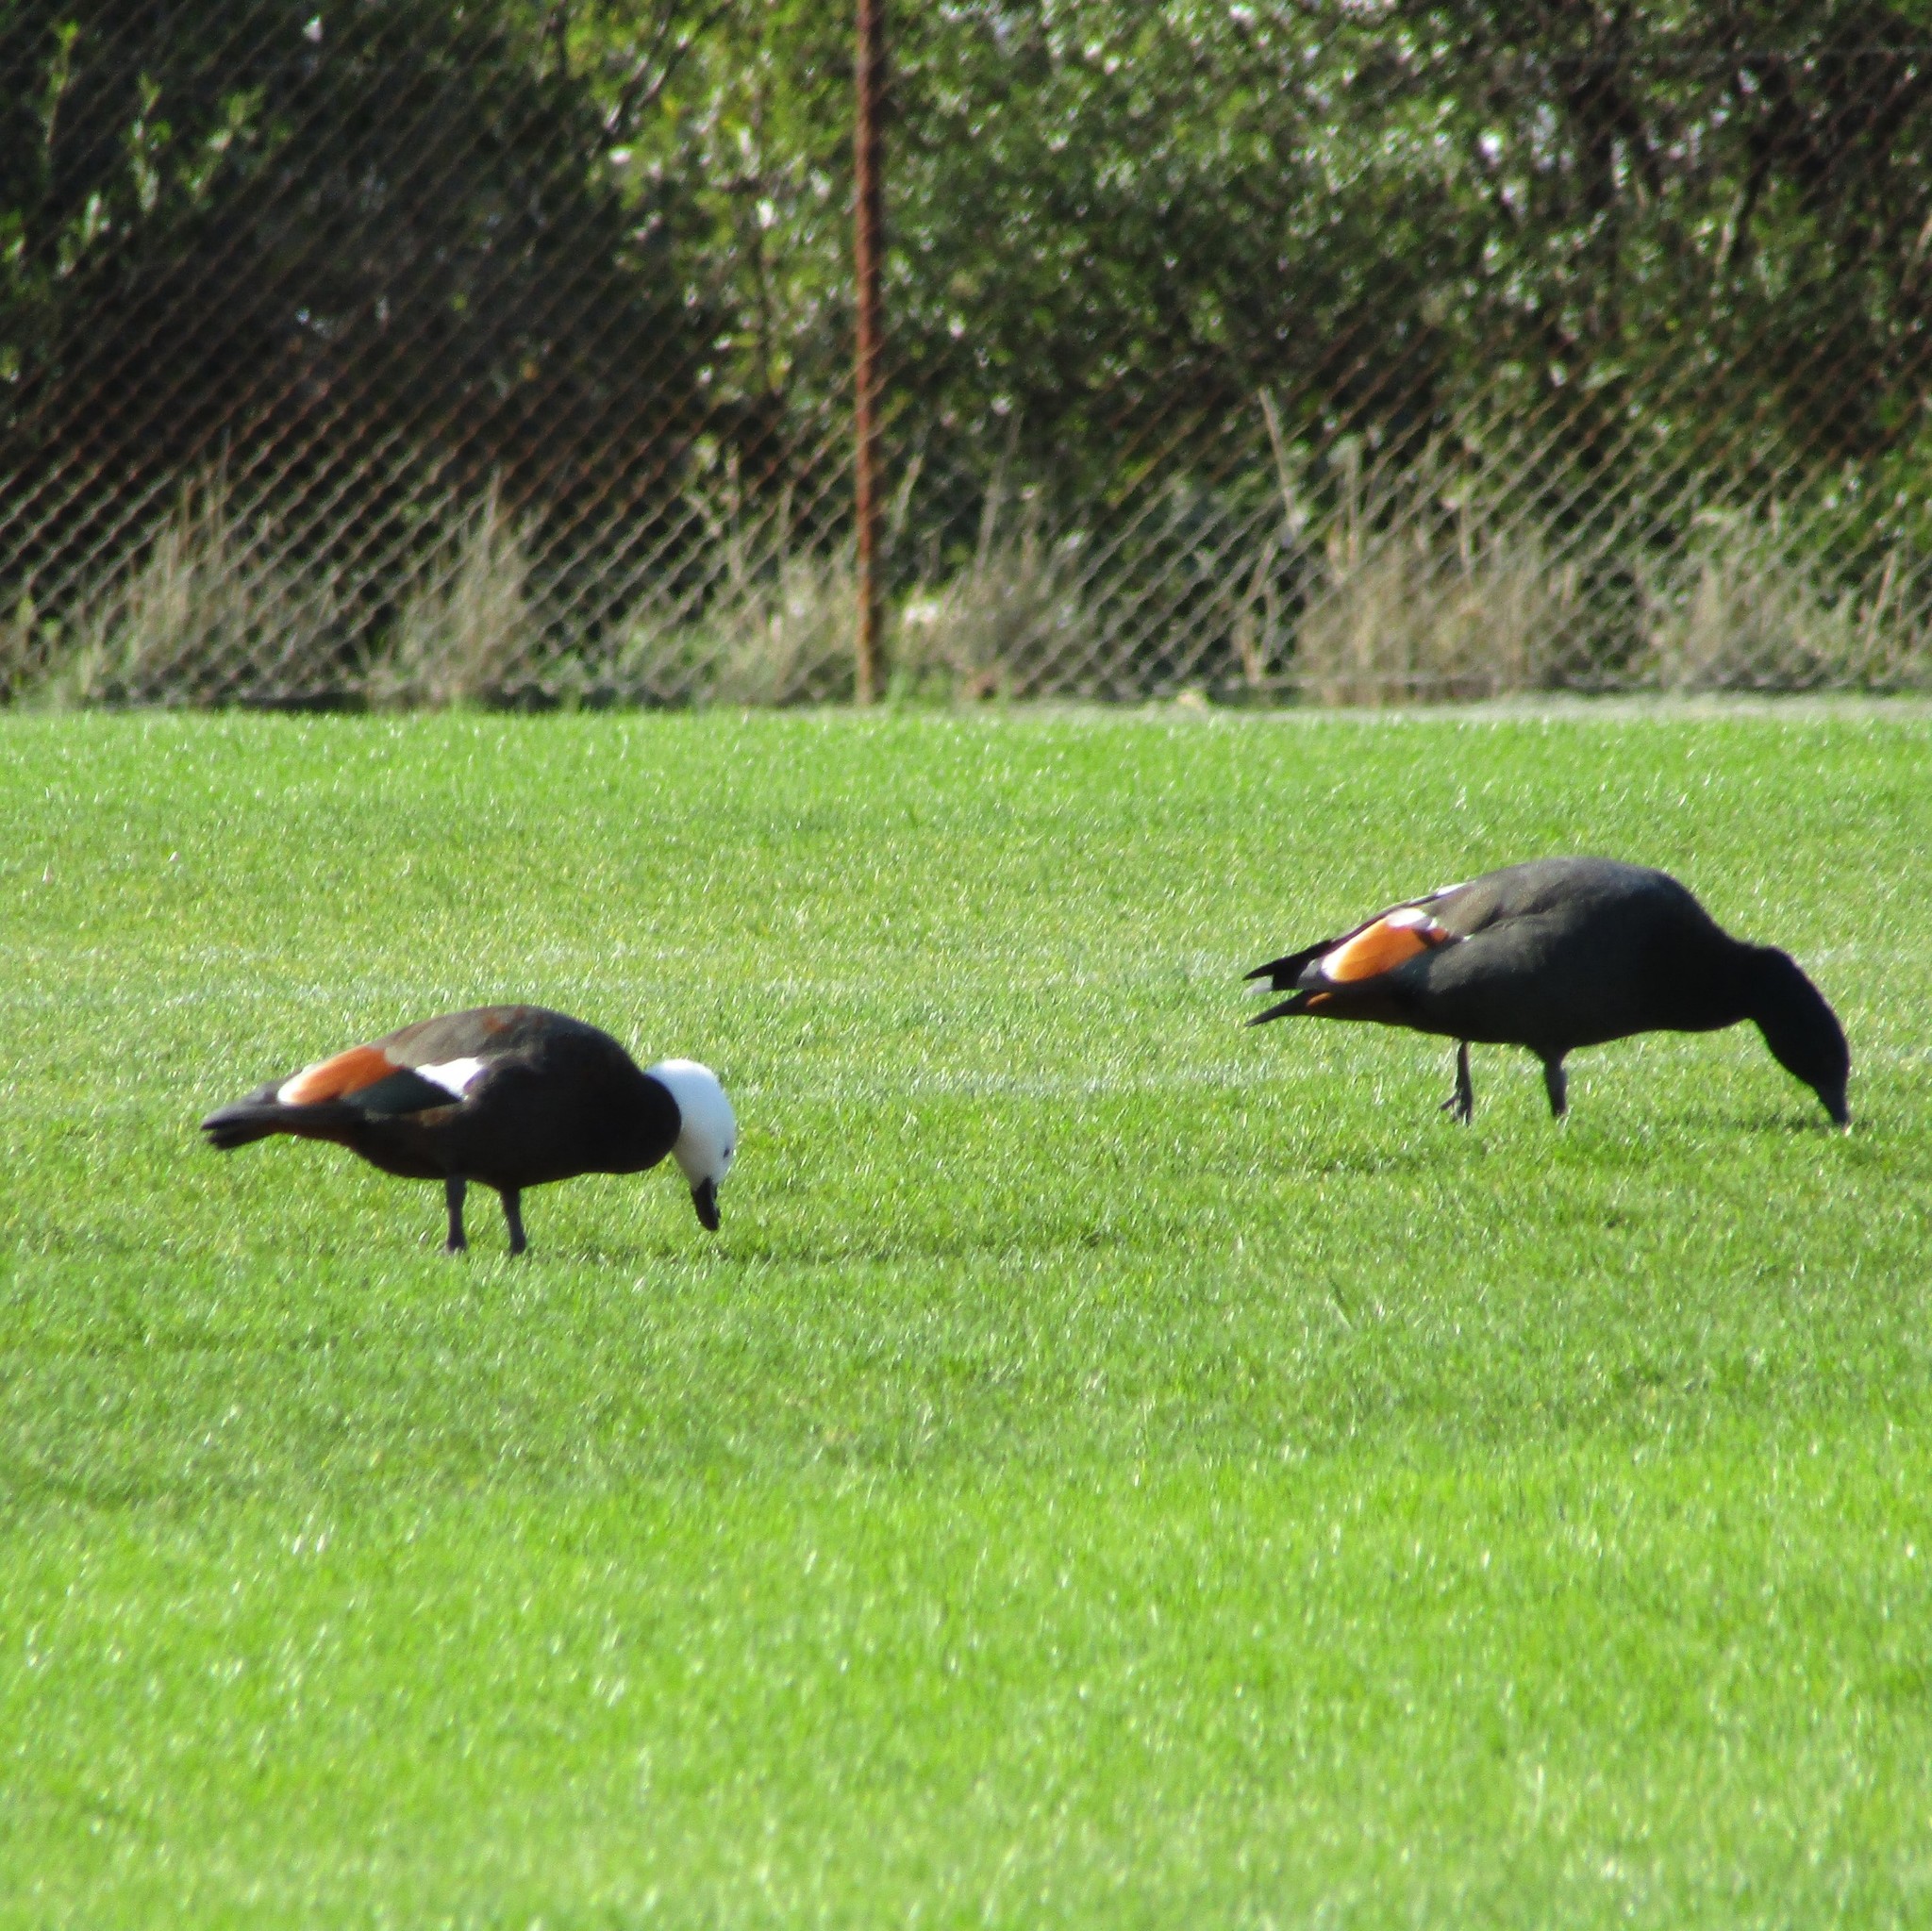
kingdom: Animalia
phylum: Chordata
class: Aves
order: Anseriformes
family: Anatidae
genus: Tadorna
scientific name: Tadorna variegata
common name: Paradise shelduck
